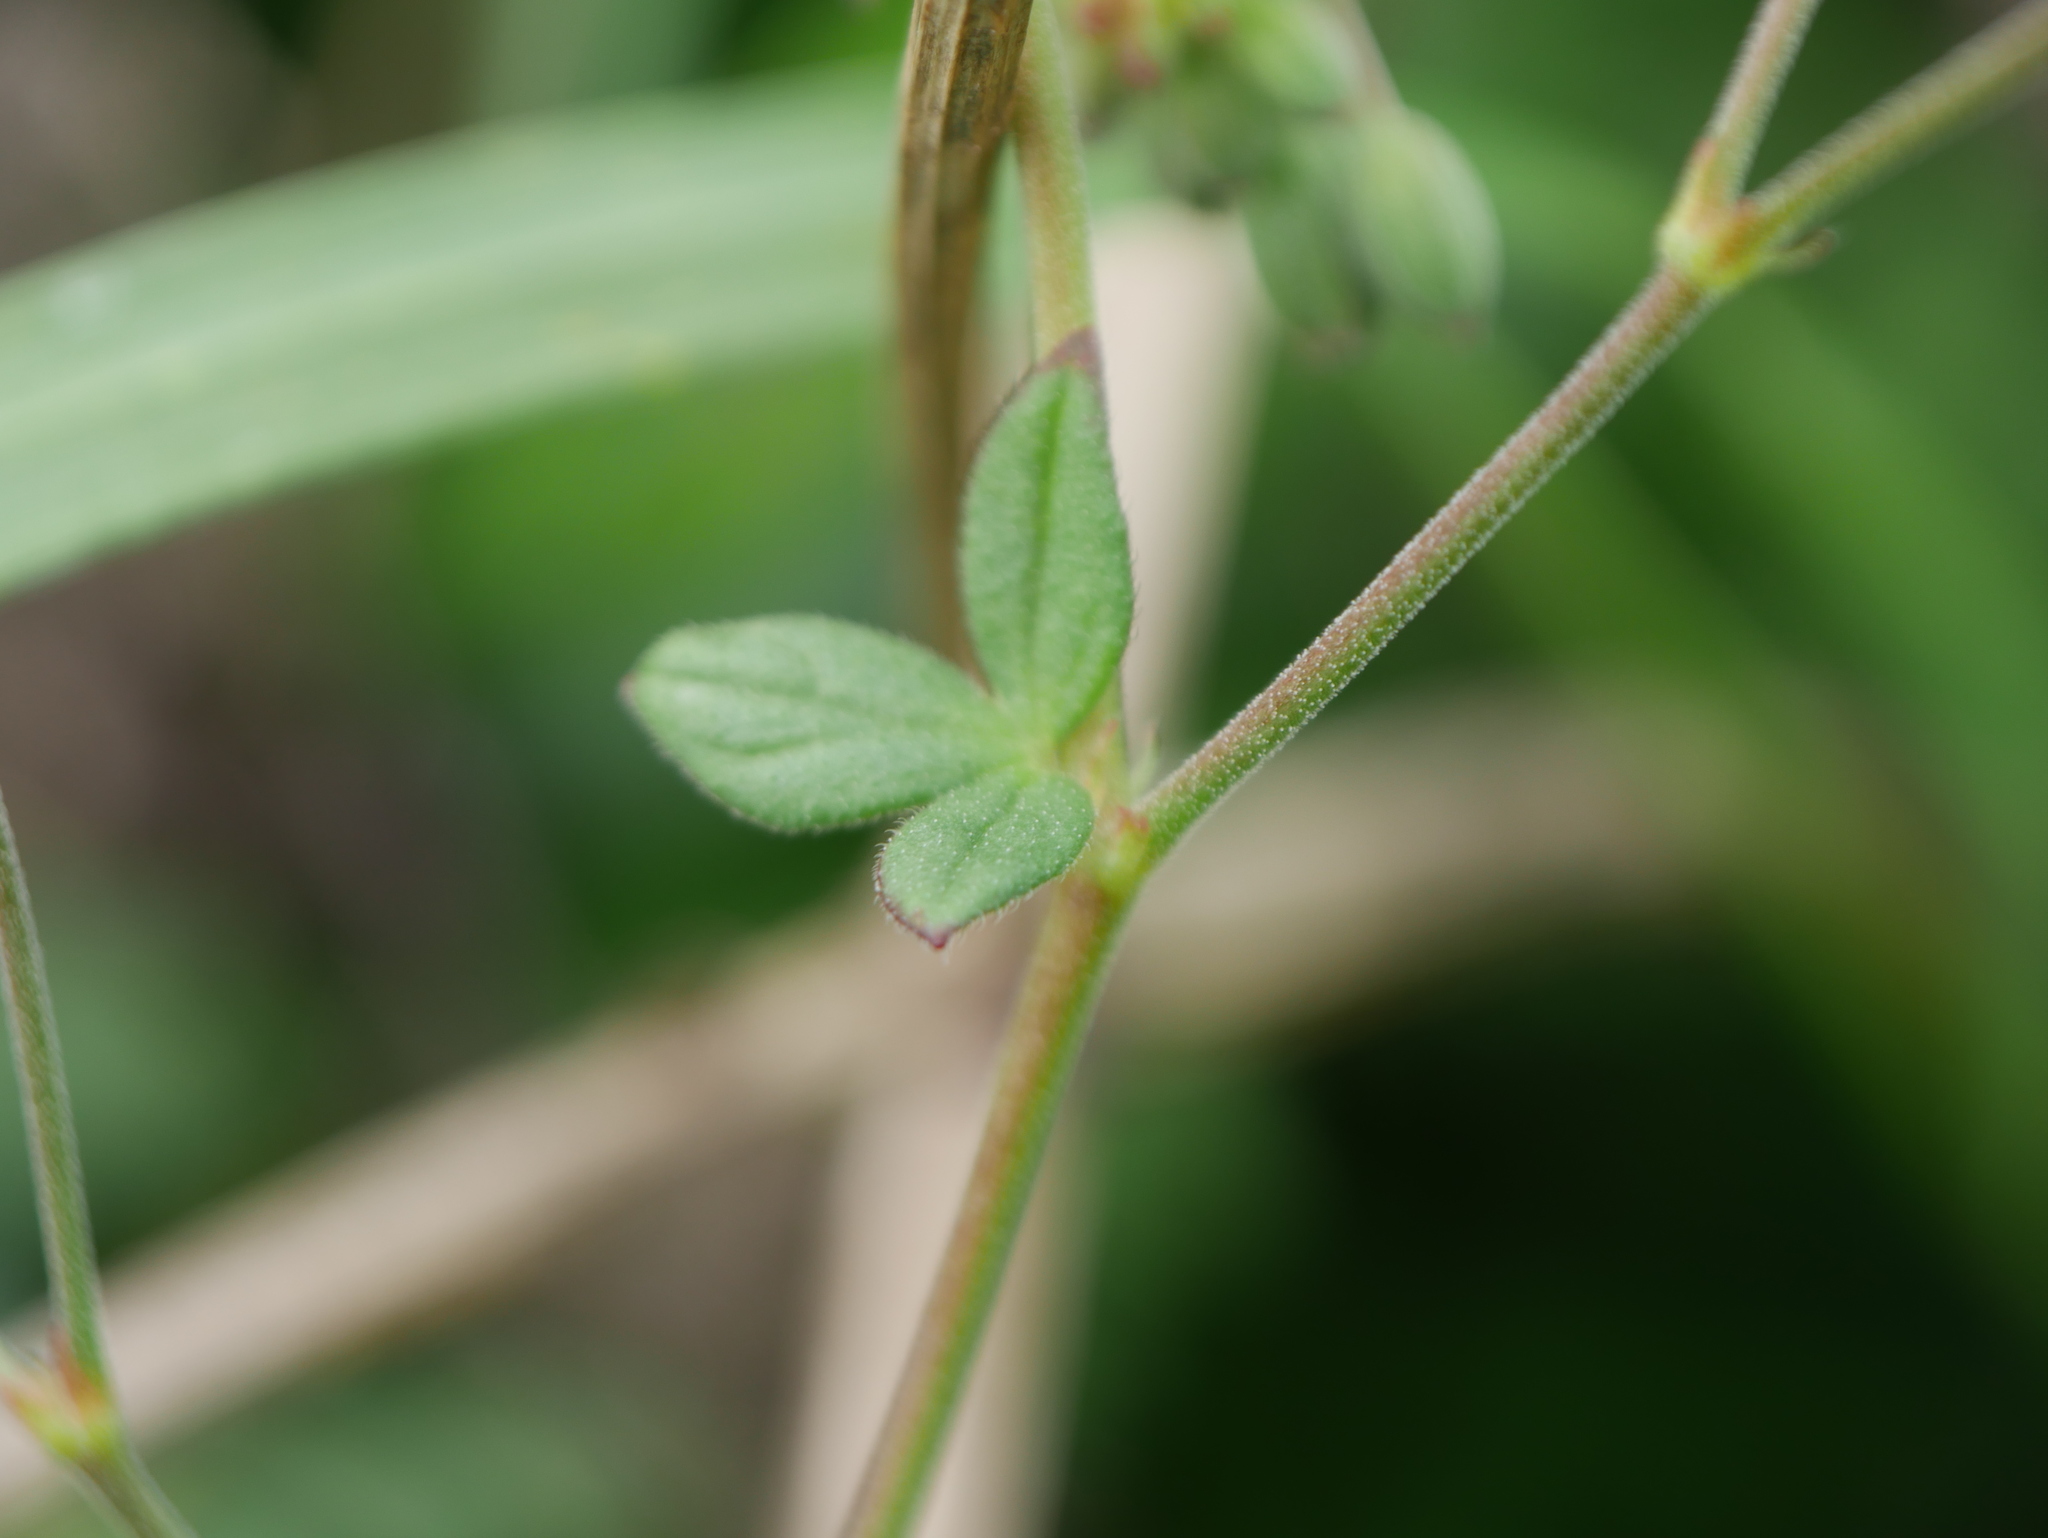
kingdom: Plantae
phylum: Tracheophyta
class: Magnoliopsida
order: Geraniales
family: Geraniaceae
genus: Geranium
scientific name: Geranium pyrenaicum
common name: Hedgerow crane's-bill
